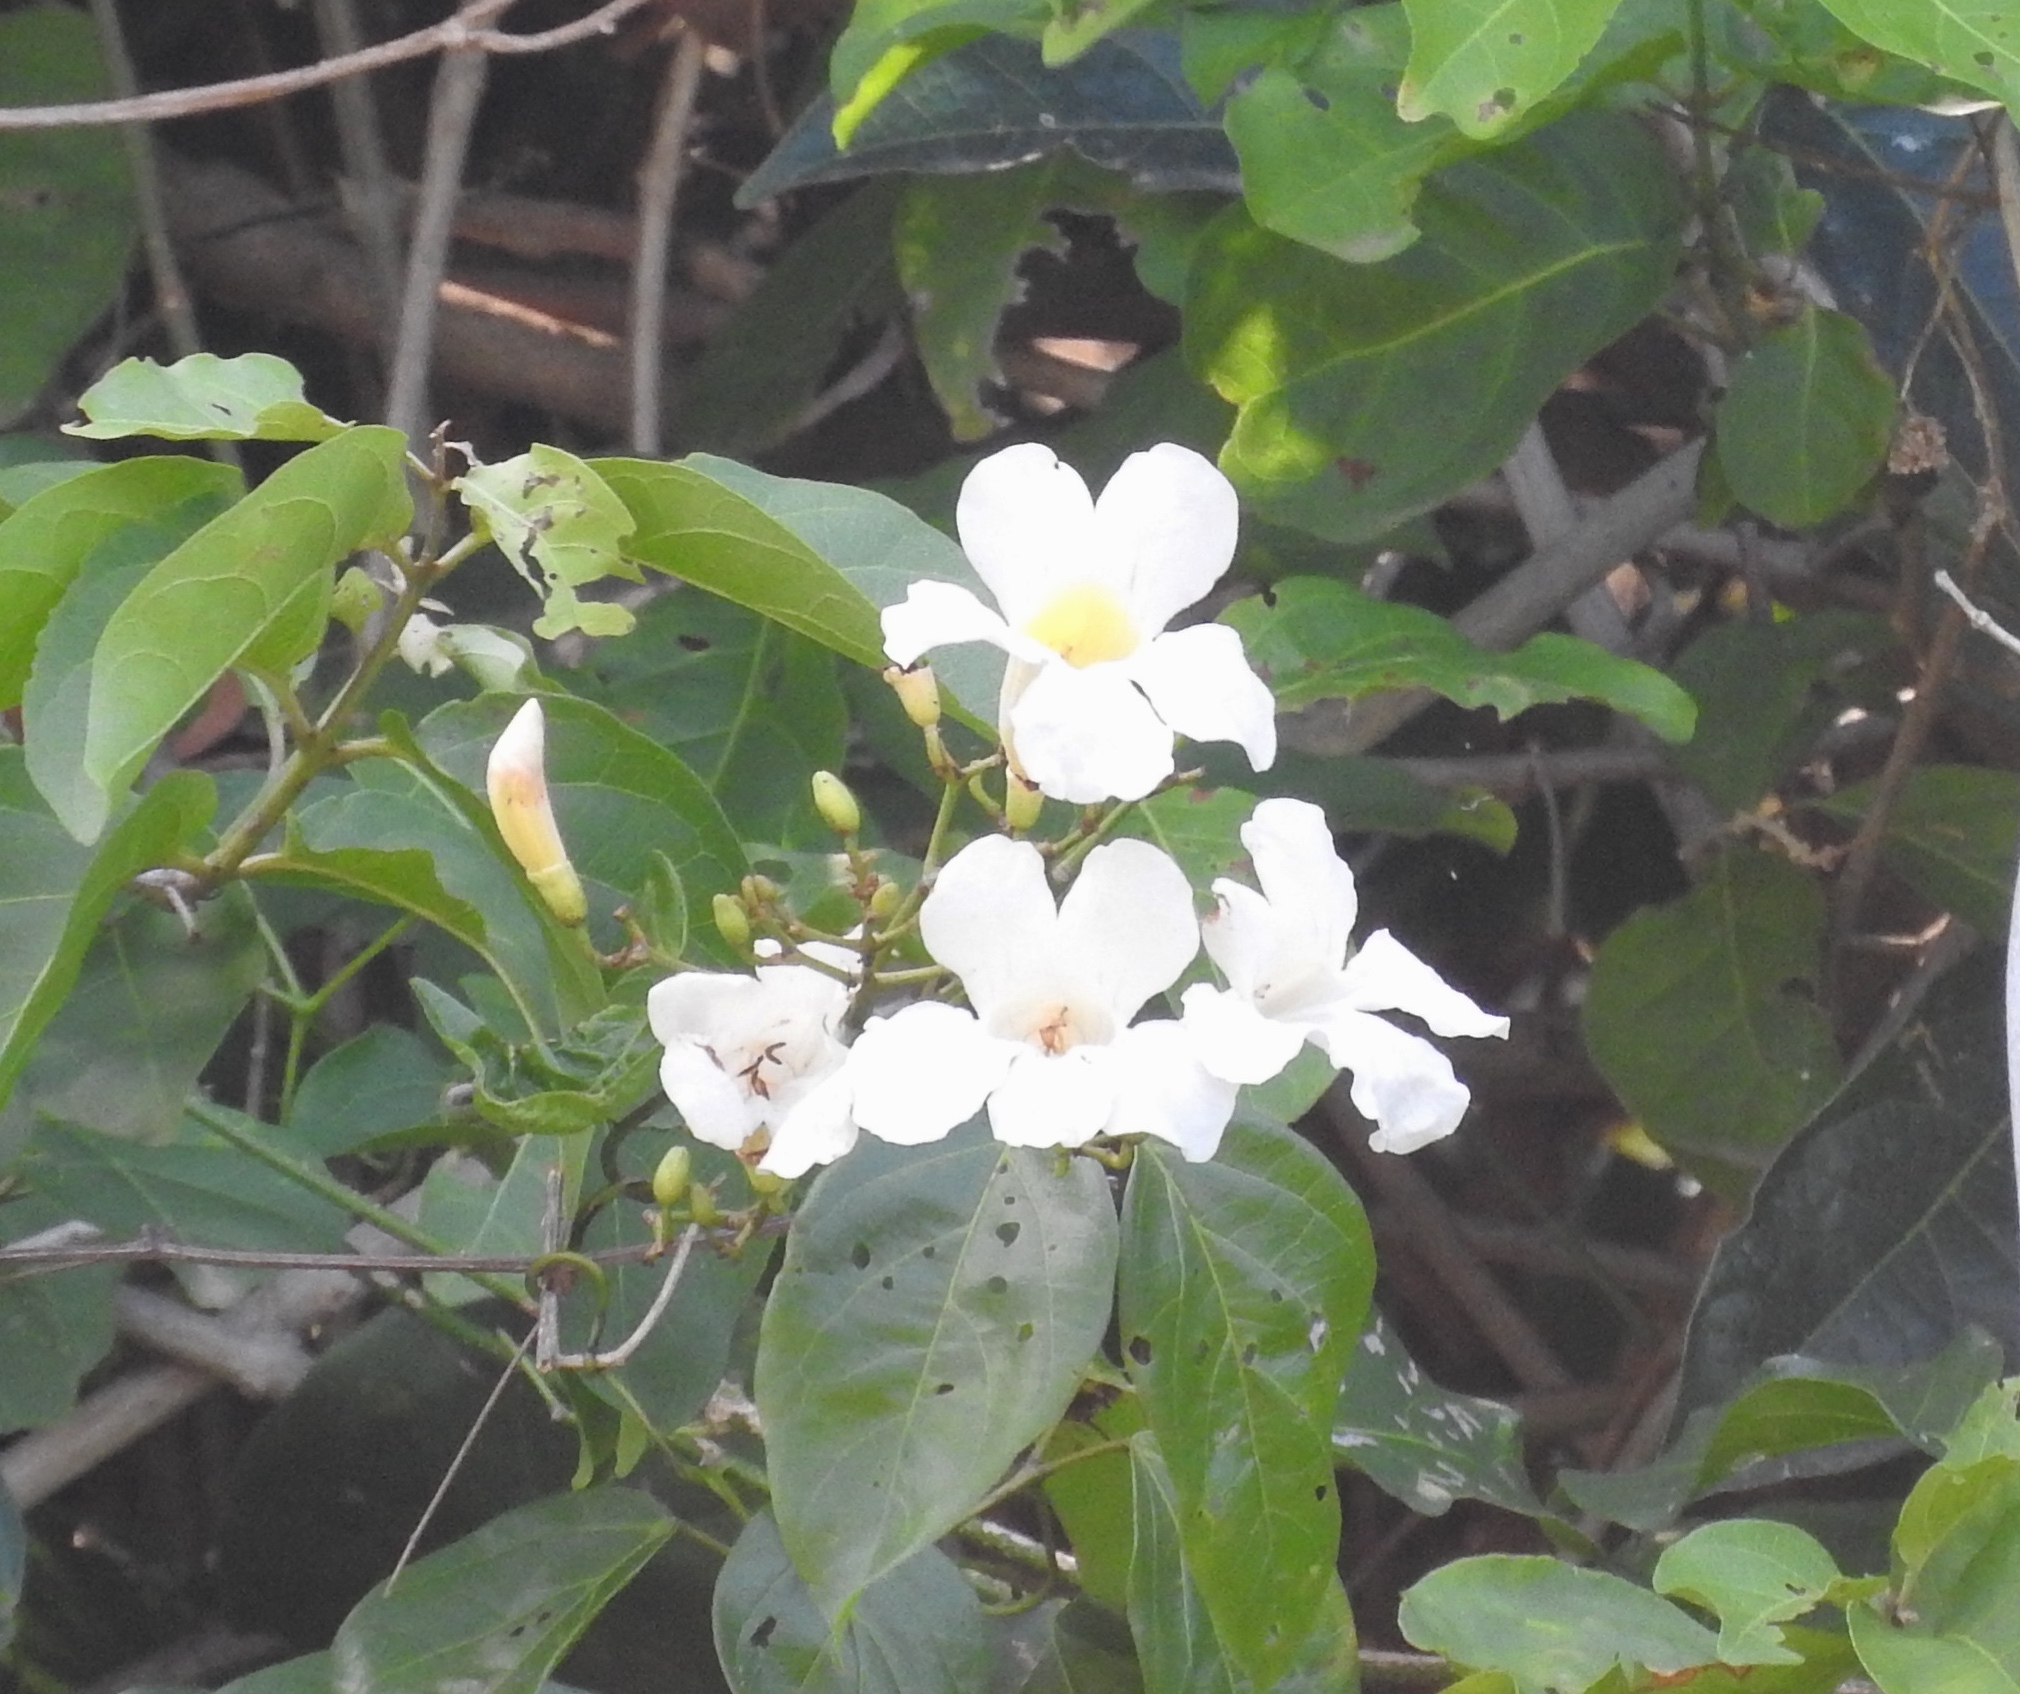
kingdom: Plantae
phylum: Tracheophyta
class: Magnoliopsida
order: Lamiales
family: Bignoniaceae
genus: Bignonia
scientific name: Bignonia potosina
